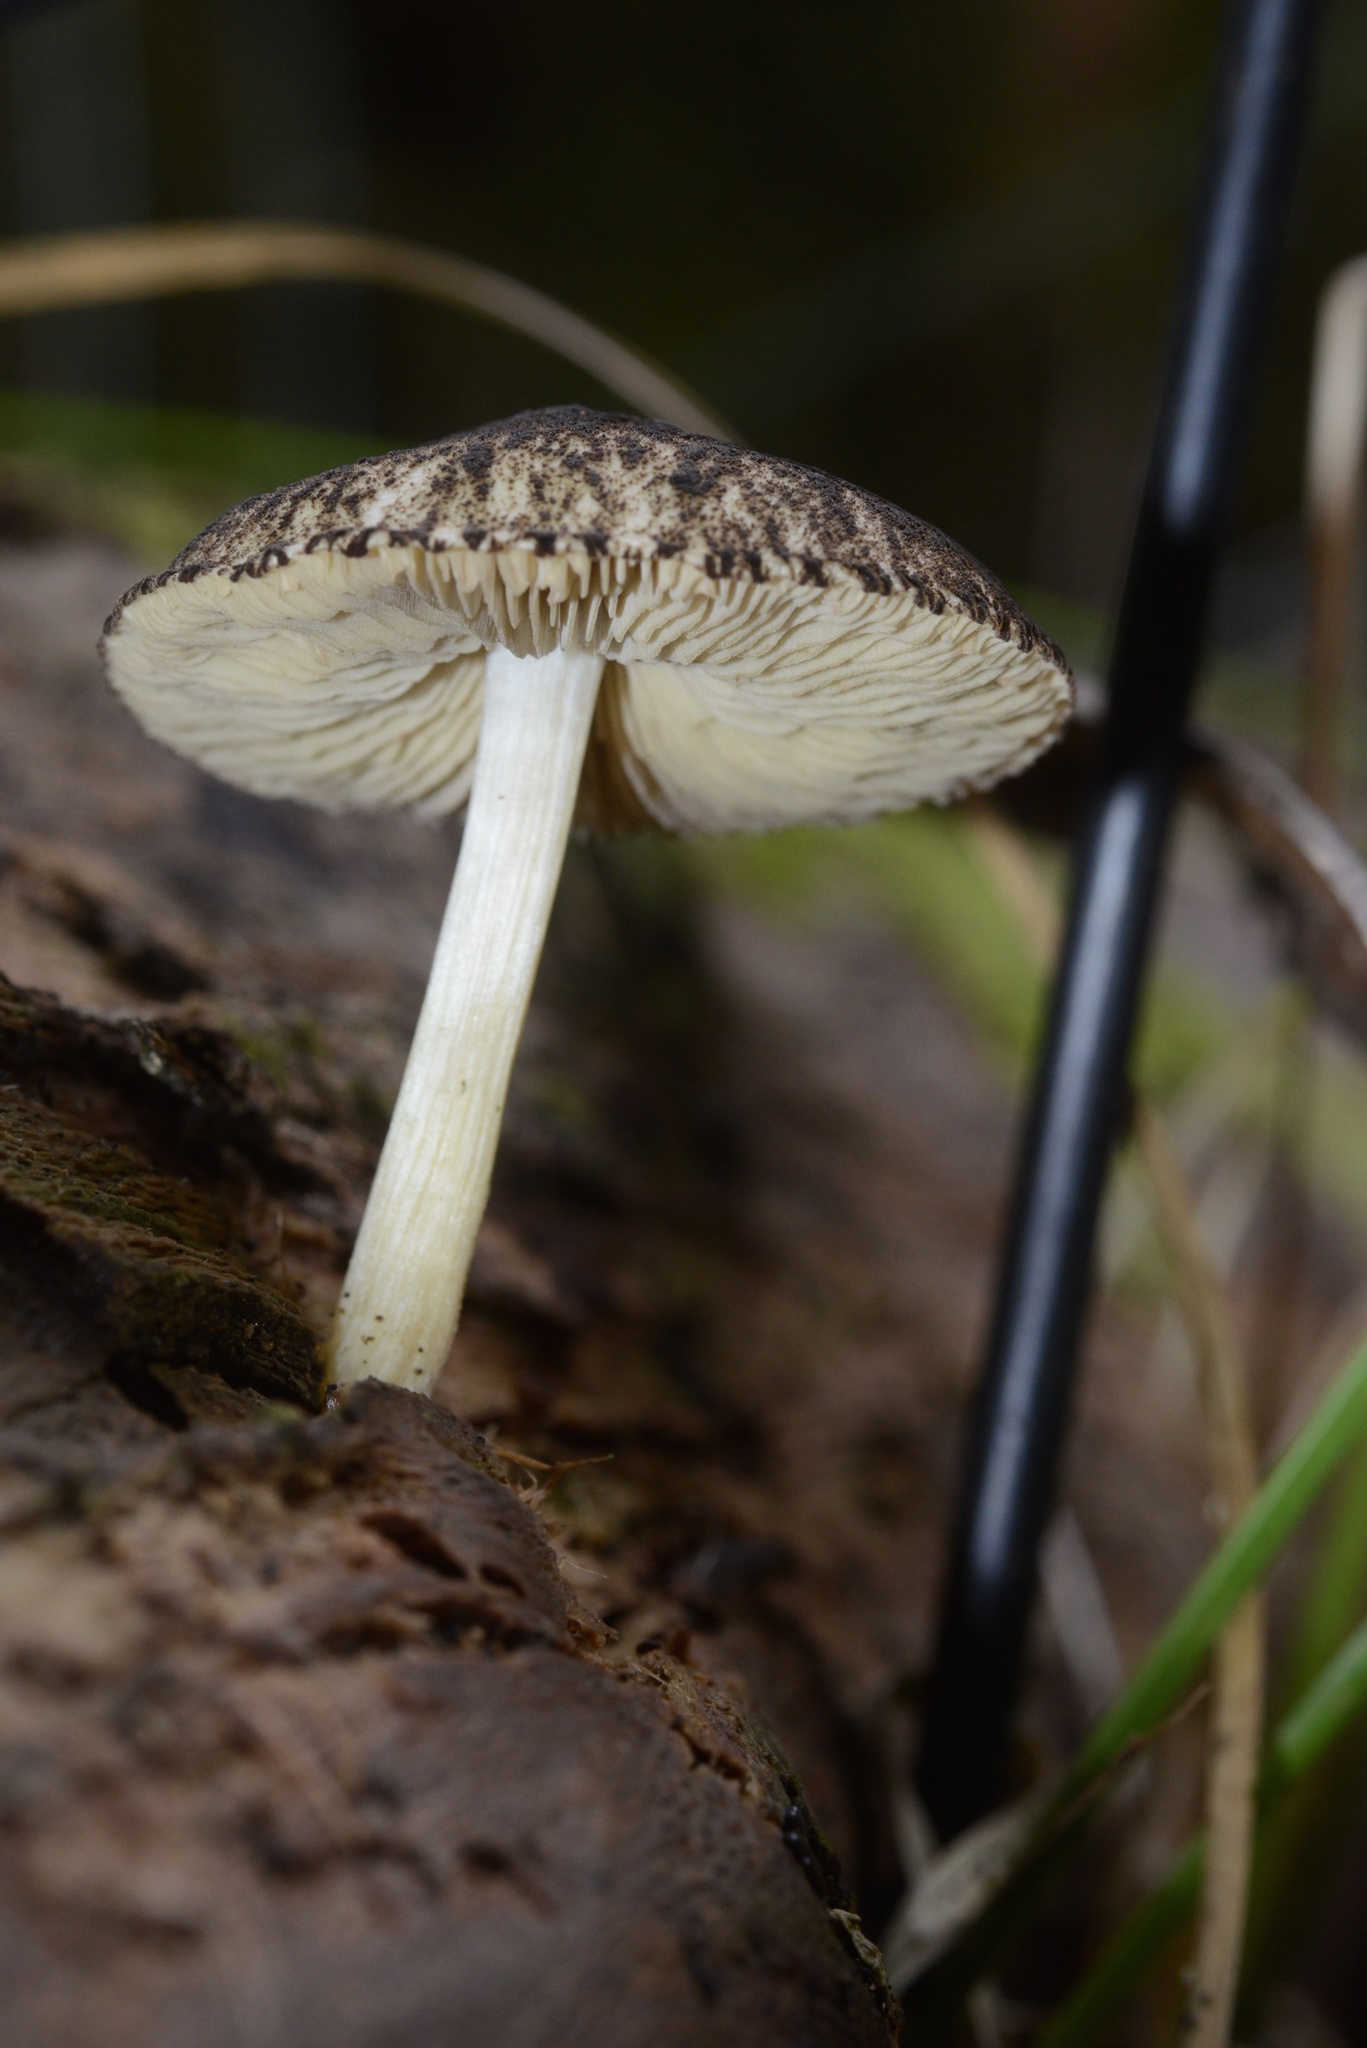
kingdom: Fungi
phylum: Basidiomycota
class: Agaricomycetes
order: Agaricales
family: Pluteaceae
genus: Pluteus
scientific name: Pluteus readiarum
